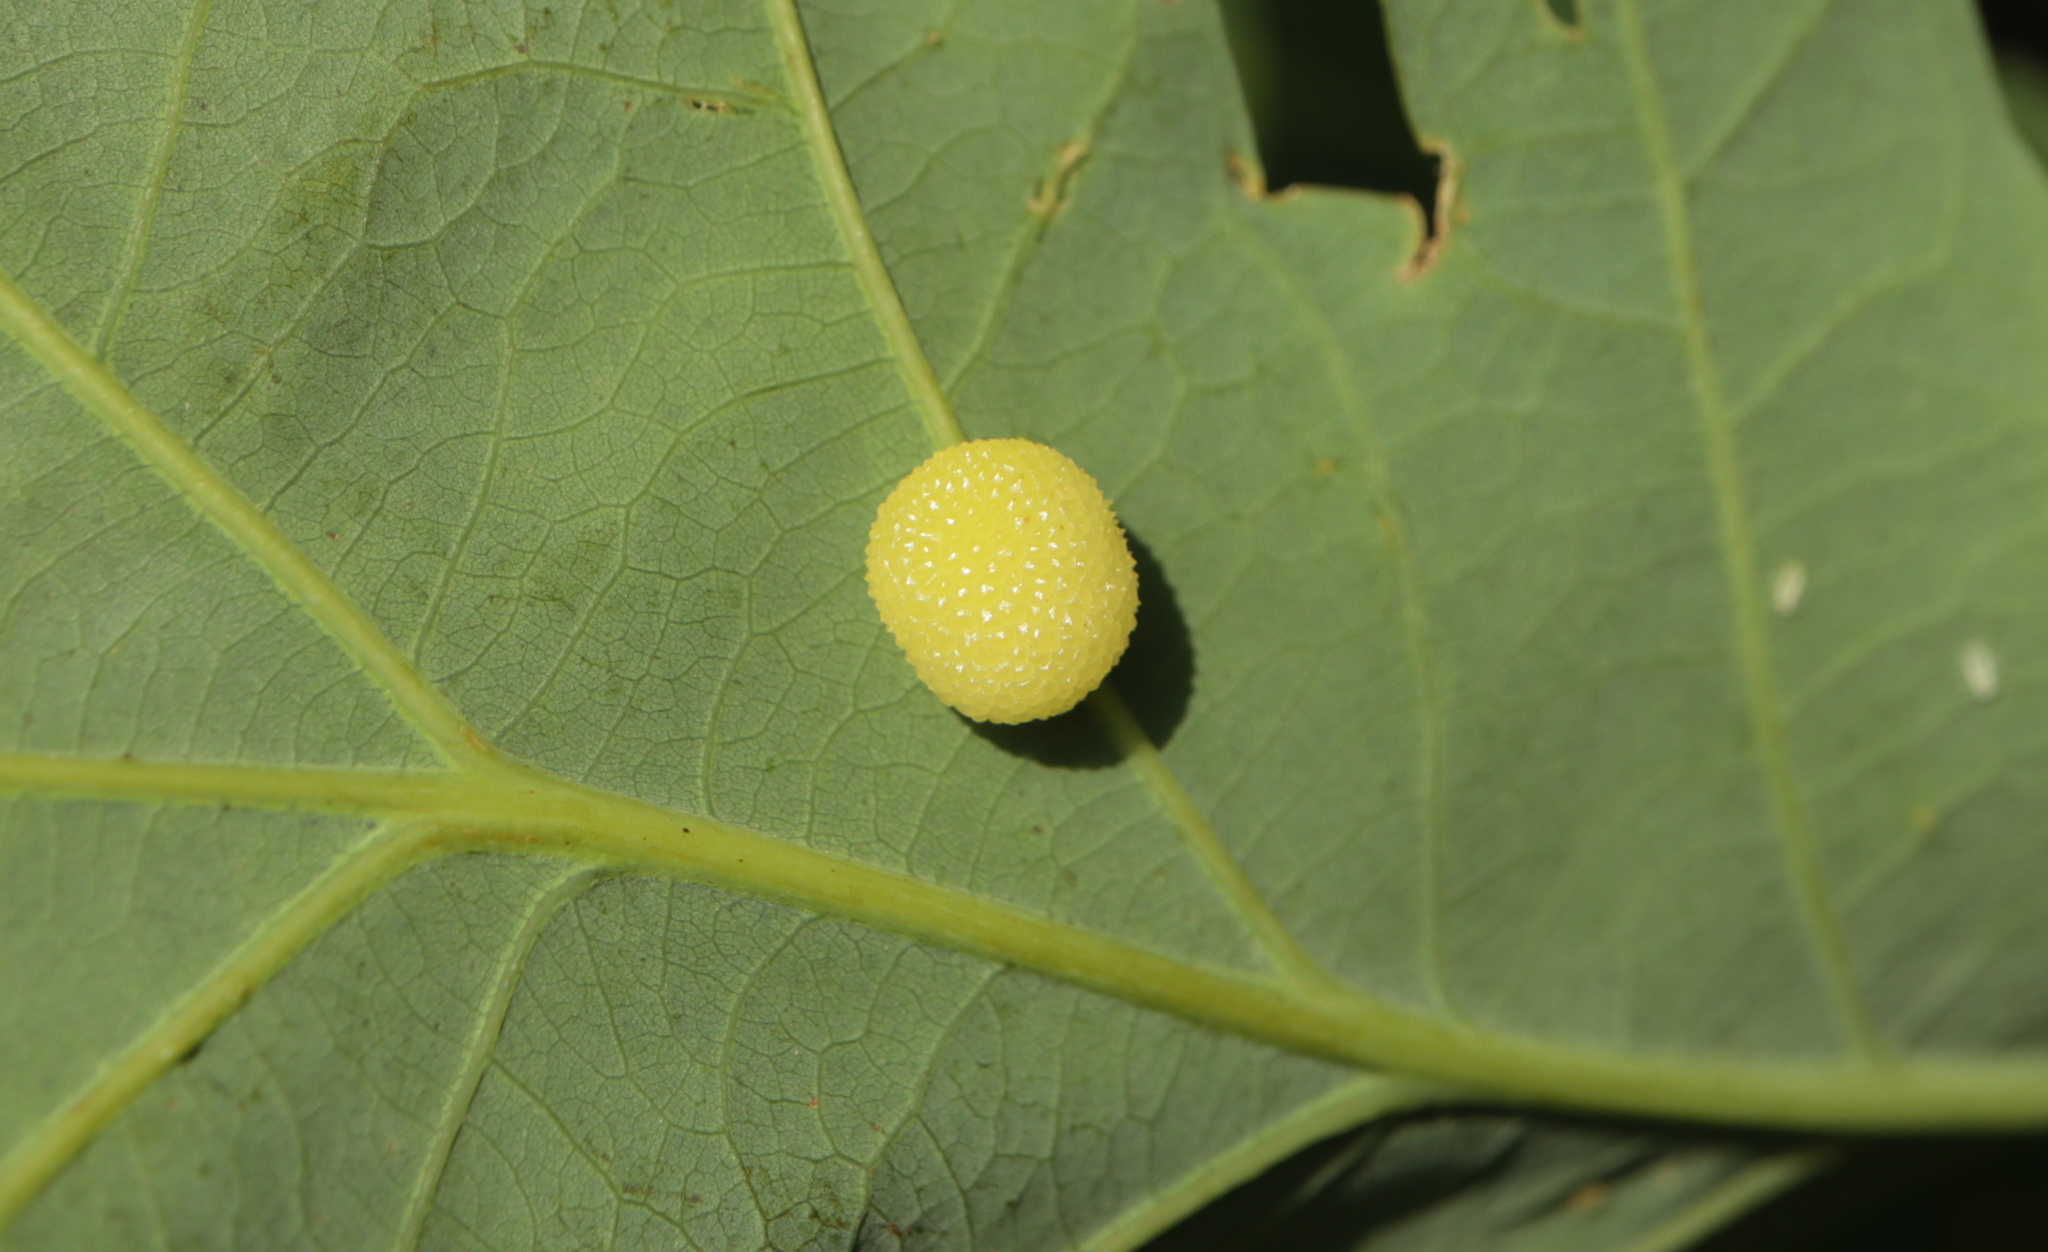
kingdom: Animalia
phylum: Arthropoda
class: Insecta
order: Hymenoptera
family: Cynipidae
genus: Acraspis
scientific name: Acraspis
